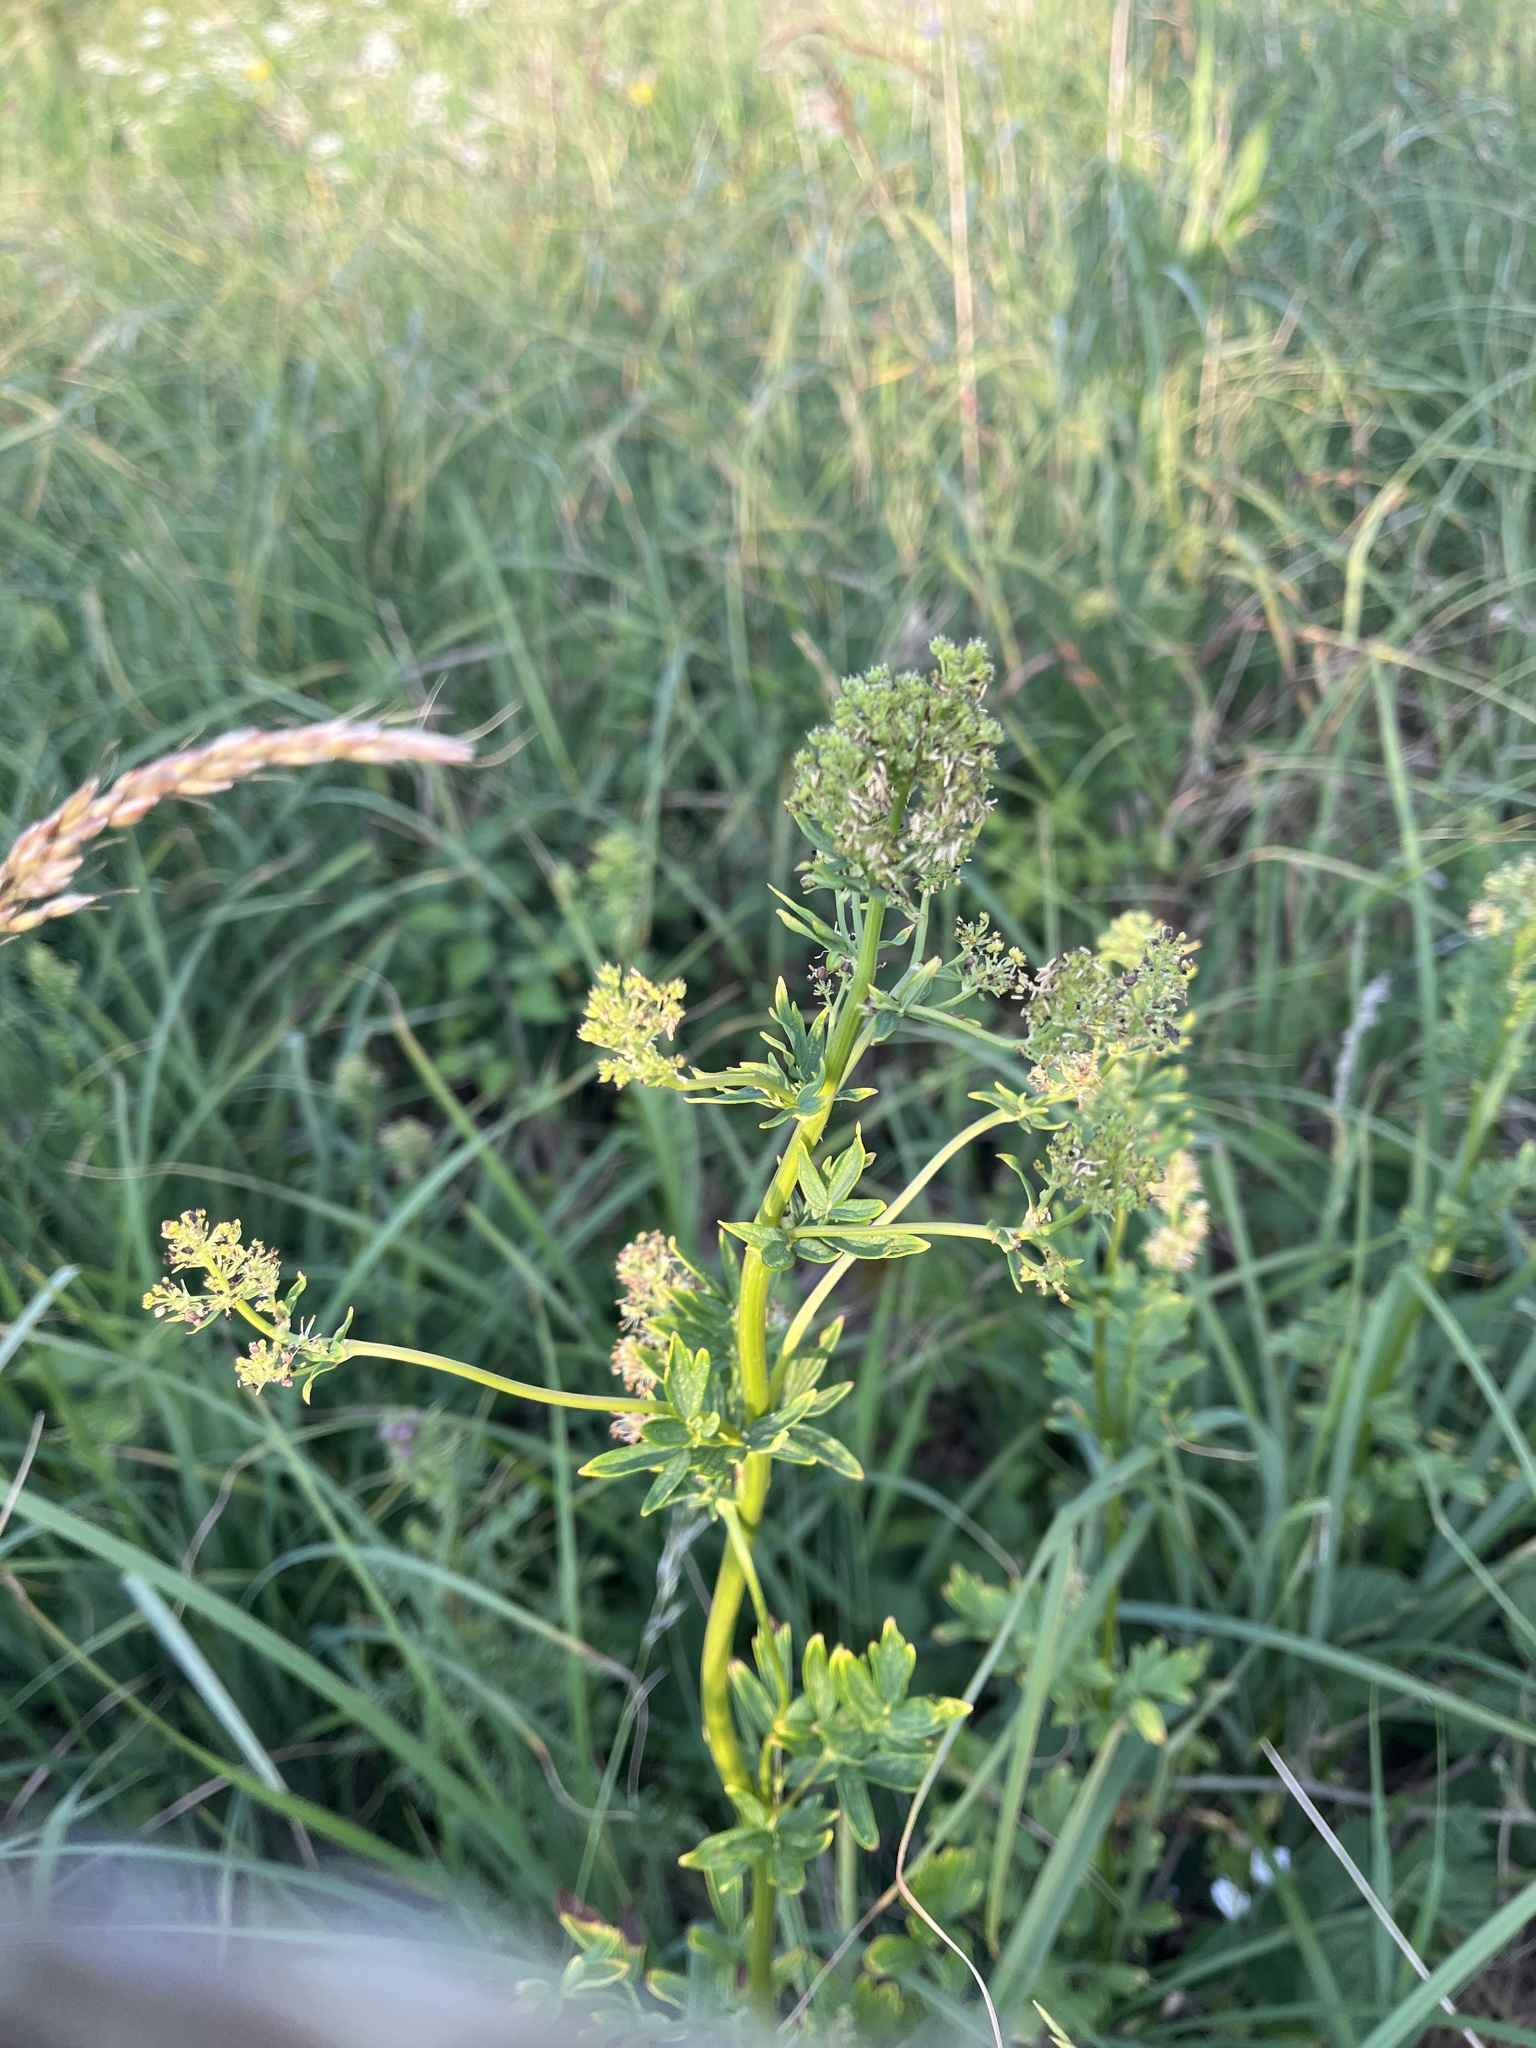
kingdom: Plantae
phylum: Tracheophyta
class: Magnoliopsida
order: Ranunculales
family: Ranunculaceae
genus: Thalictrum
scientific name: Thalictrum flavum
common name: Common meadow-rue
